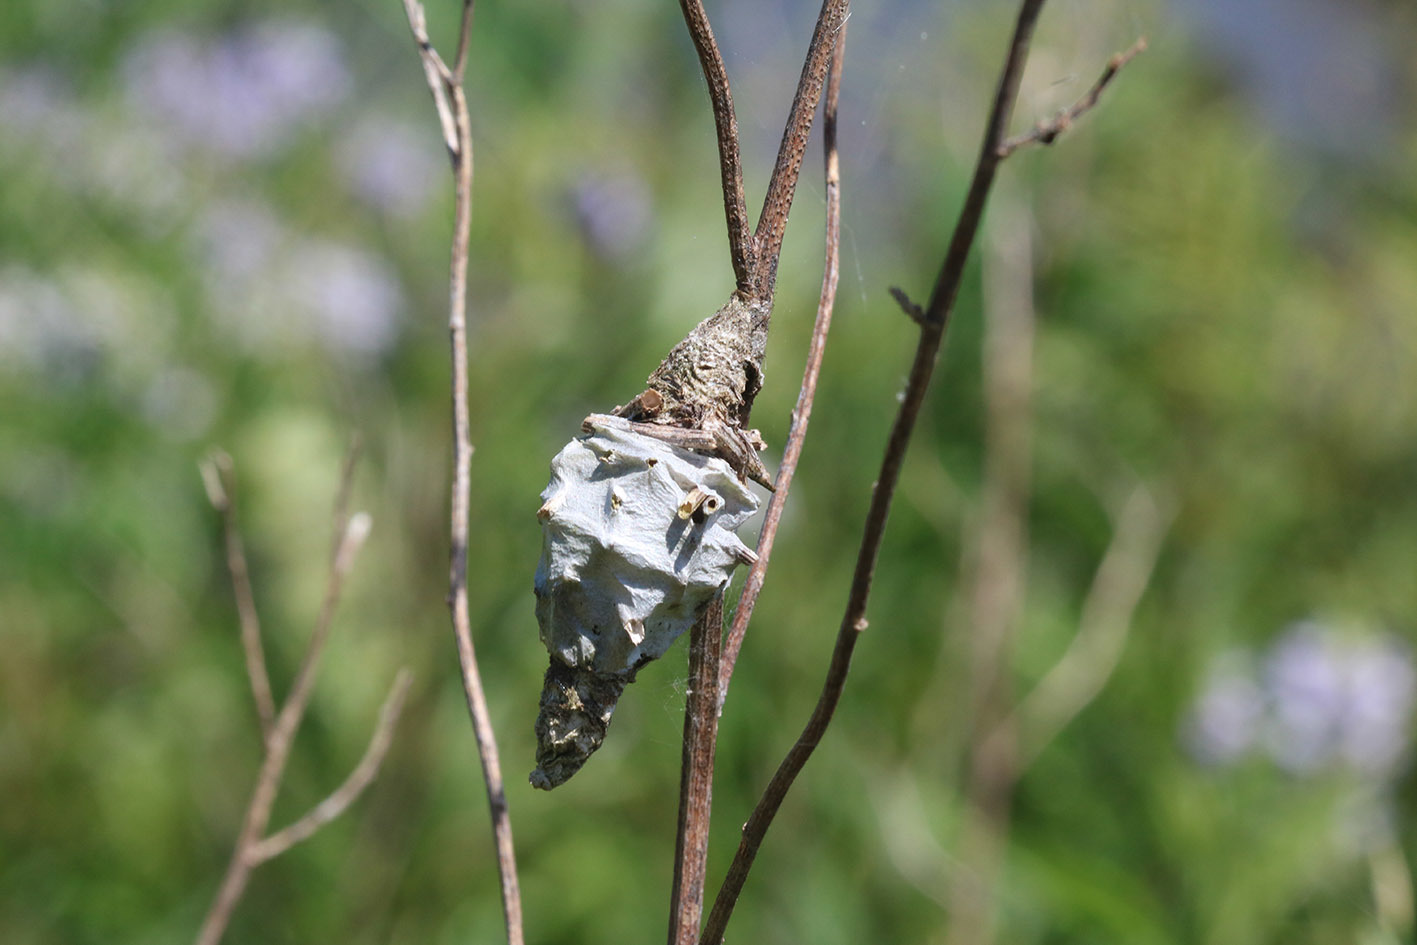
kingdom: Animalia
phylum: Arthropoda
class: Insecta
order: Lepidoptera
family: Psychidae
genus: Oiketicus
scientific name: Oiketicus
